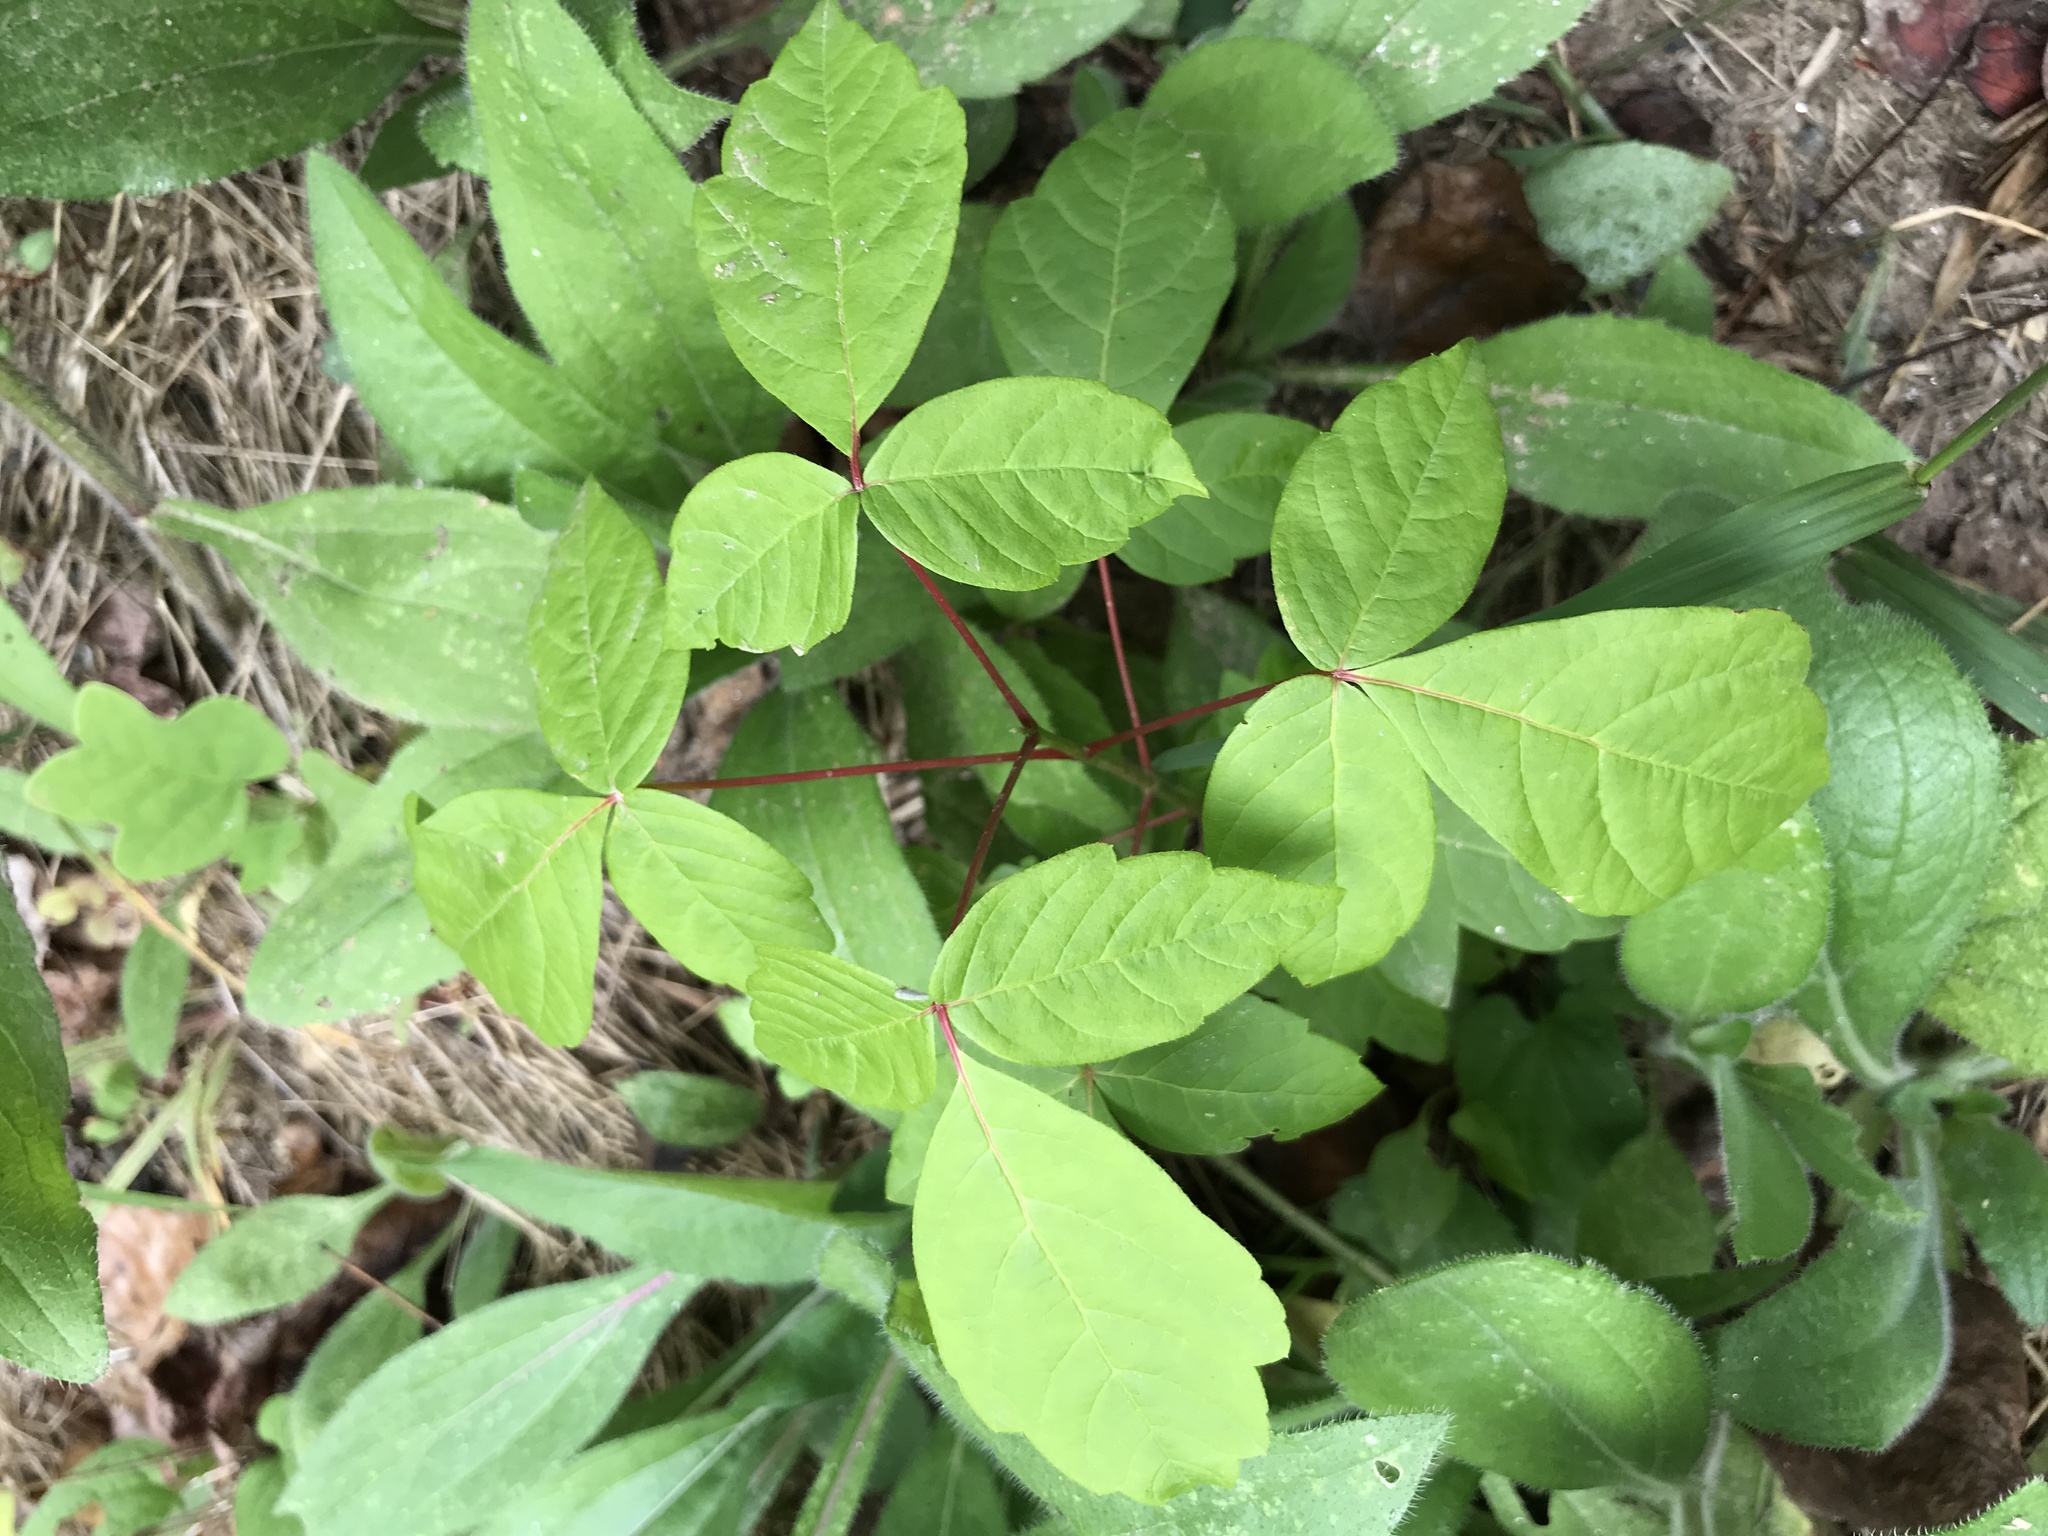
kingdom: Plantae
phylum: Tracheophyta
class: Magnoliopsida
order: Sapindales
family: Sapindaceae
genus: Acer
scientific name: Acer negundo
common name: Ashleaf maple
